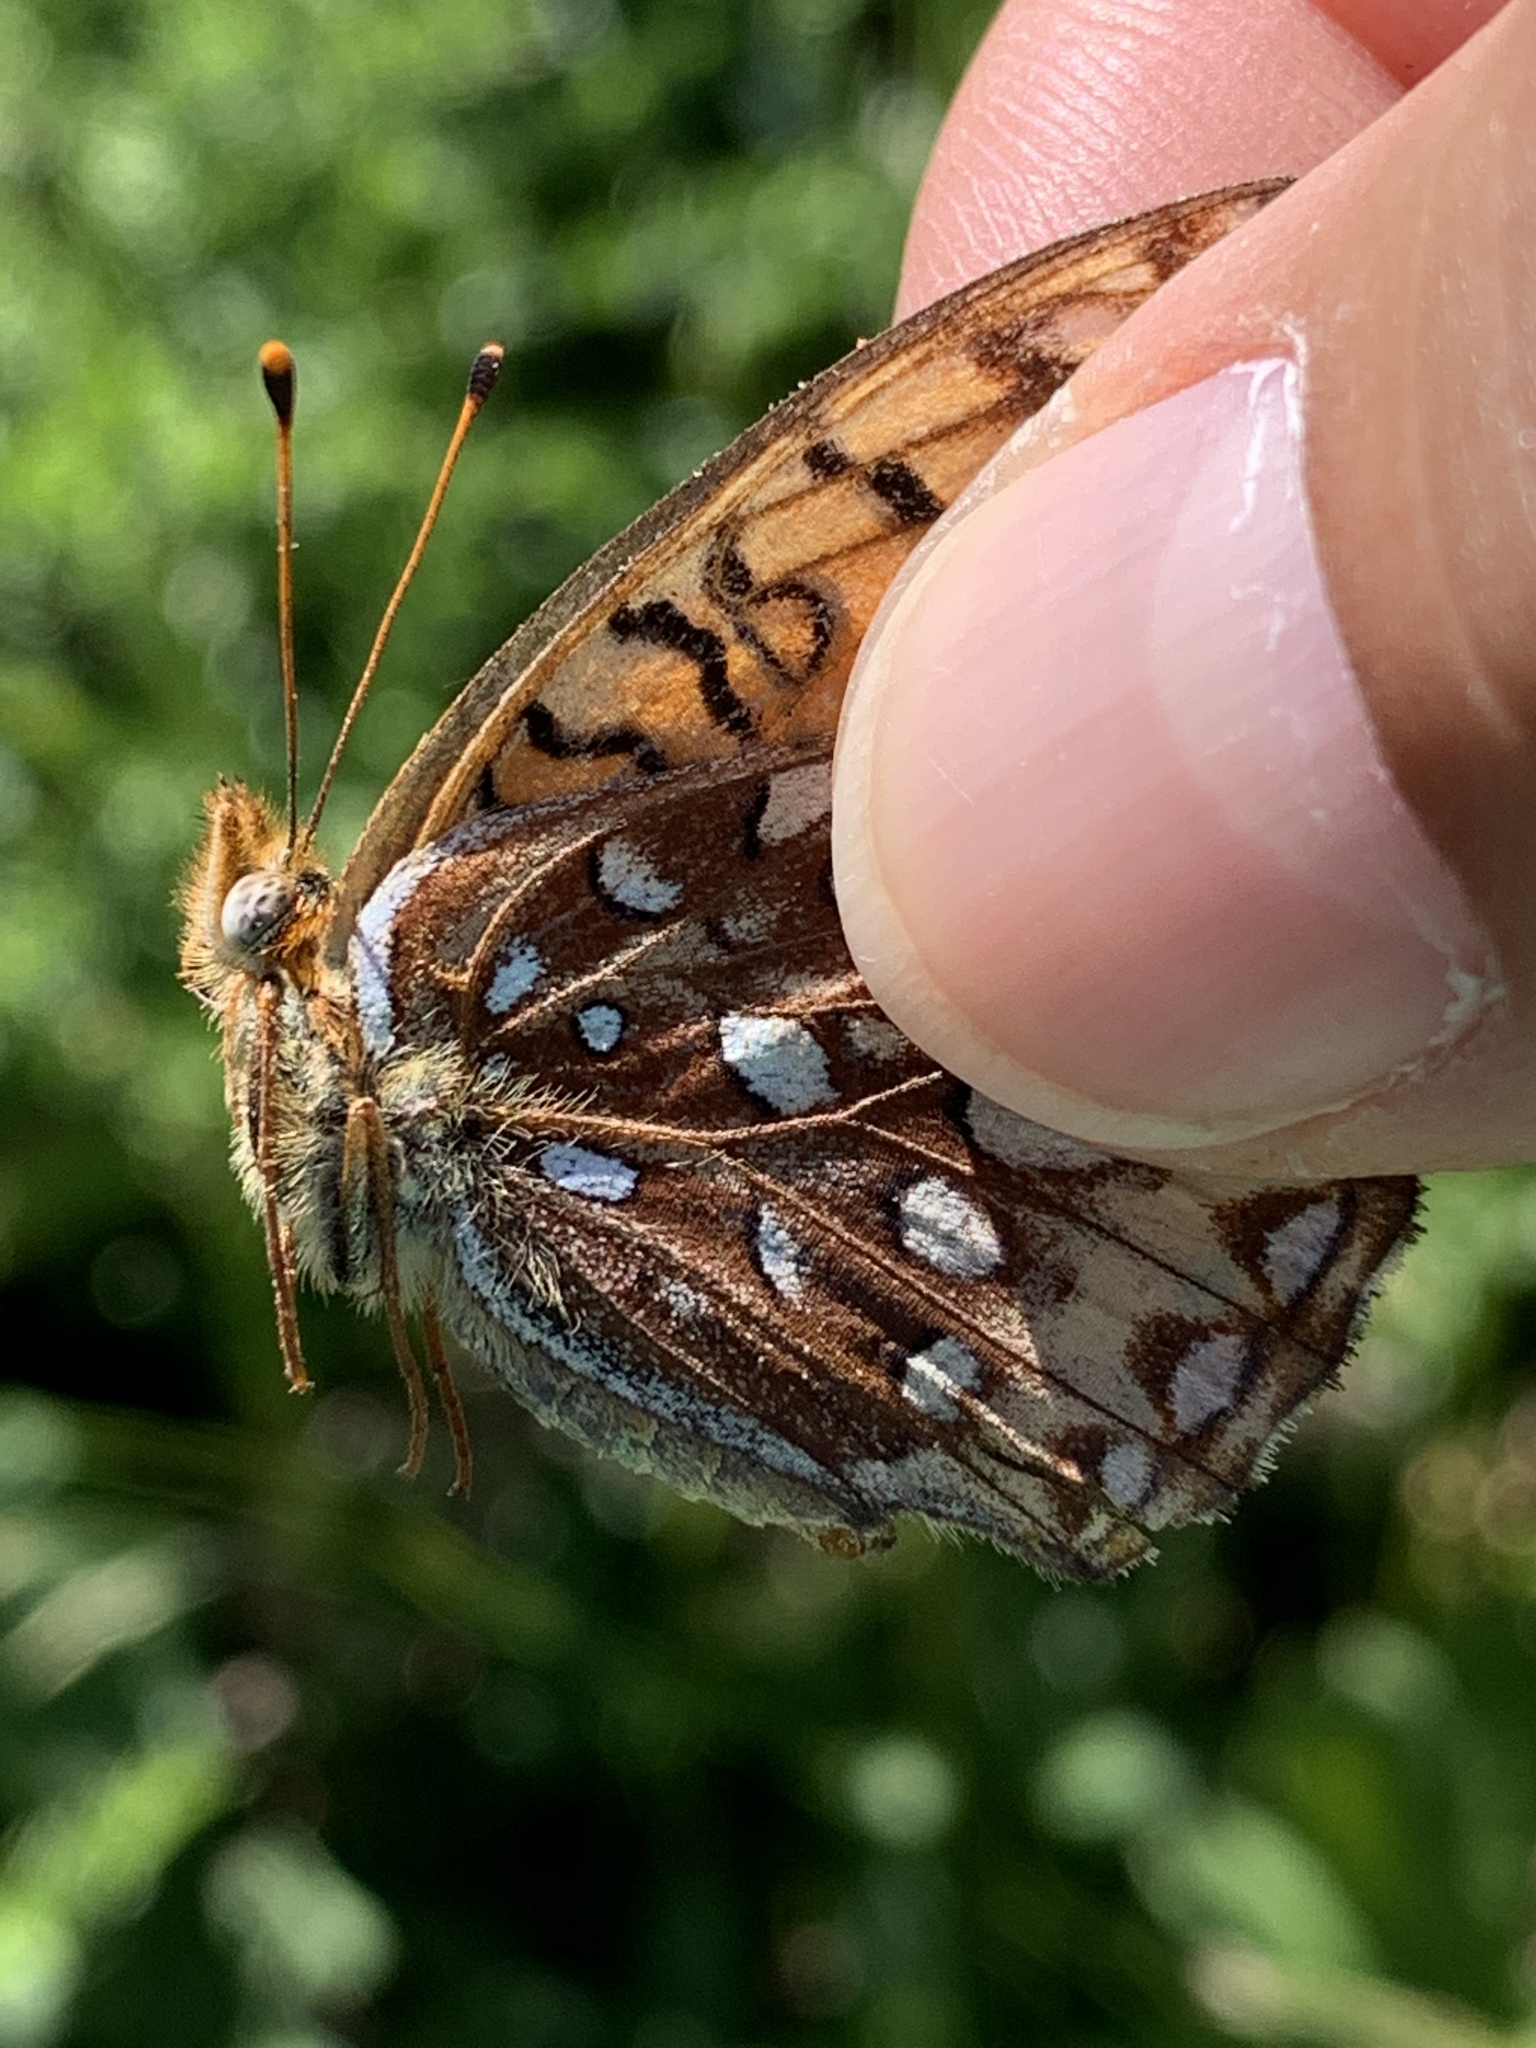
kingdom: Animalia
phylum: Arthropoda
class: Insecta
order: Lepidoptera
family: Nymphalidae
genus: Speyeria
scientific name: Speyeria atlantis
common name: Atlantis fritillary
